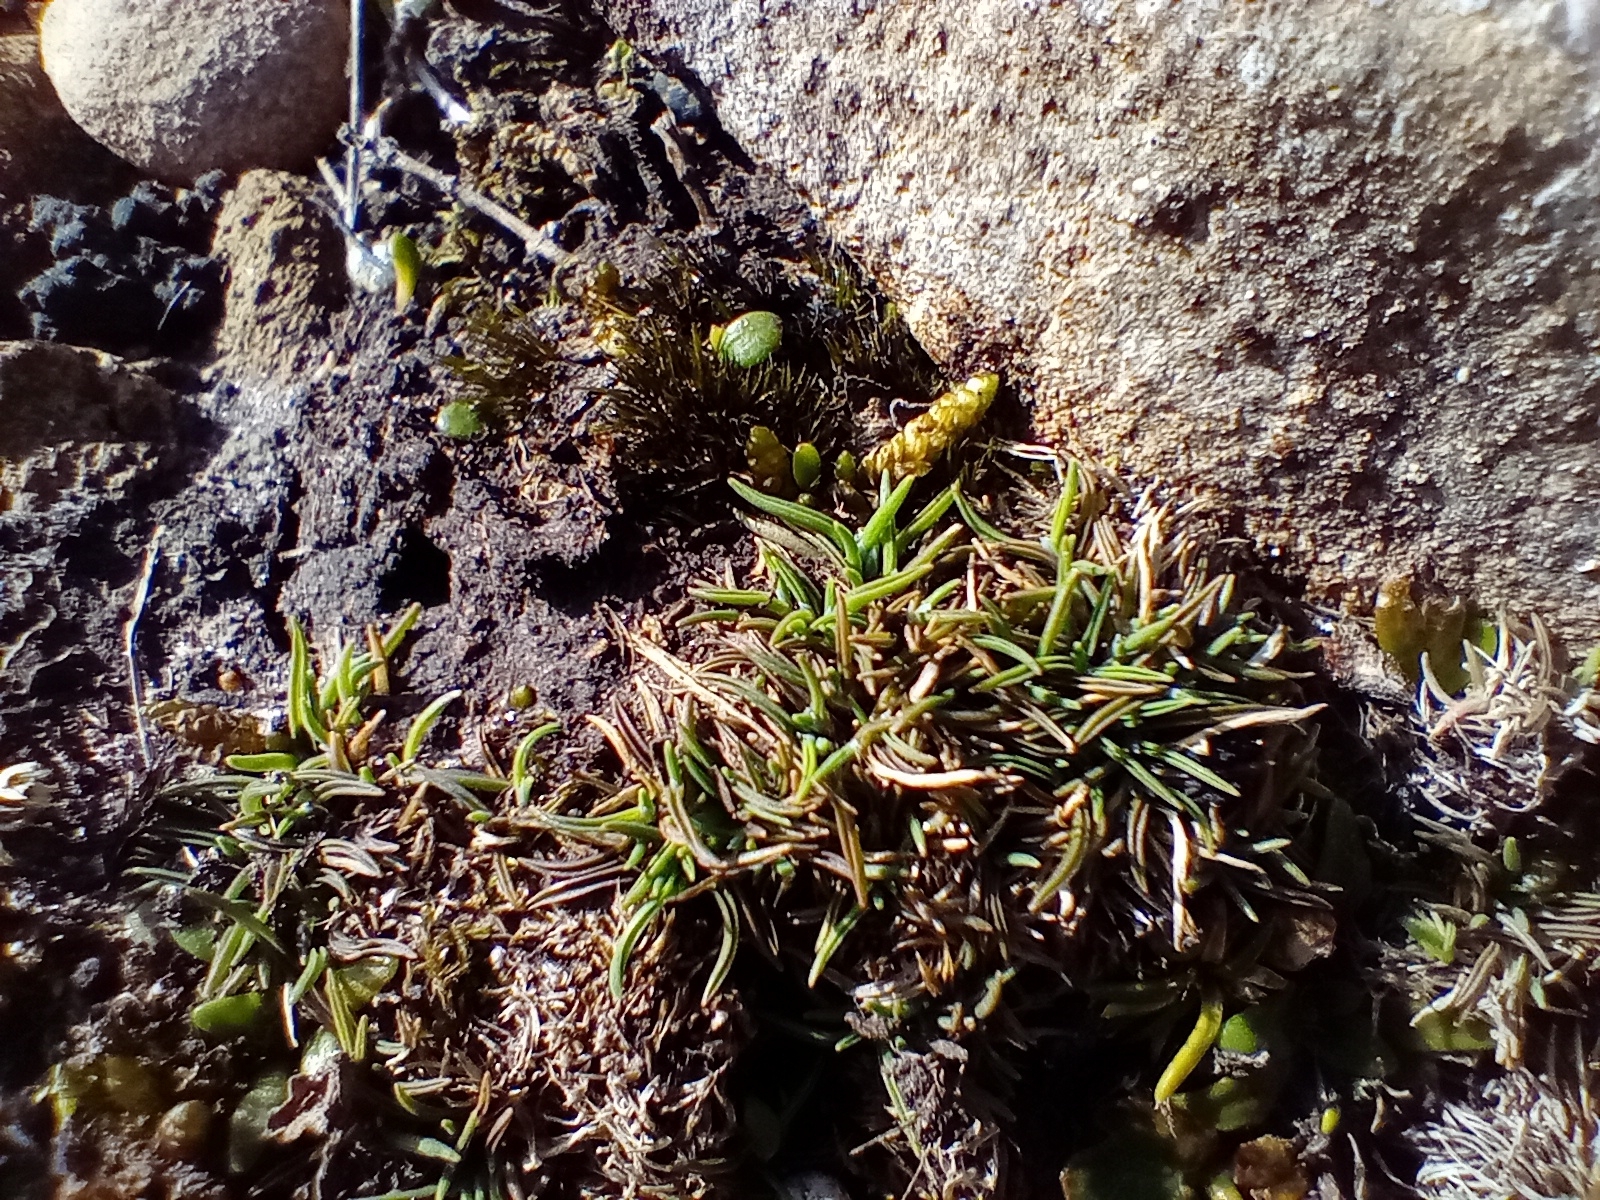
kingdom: Plantae
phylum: Tracheophyta
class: Liliopsida
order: Poales
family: Poaceae
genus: Agrostis
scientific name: Agrostis muscosa
